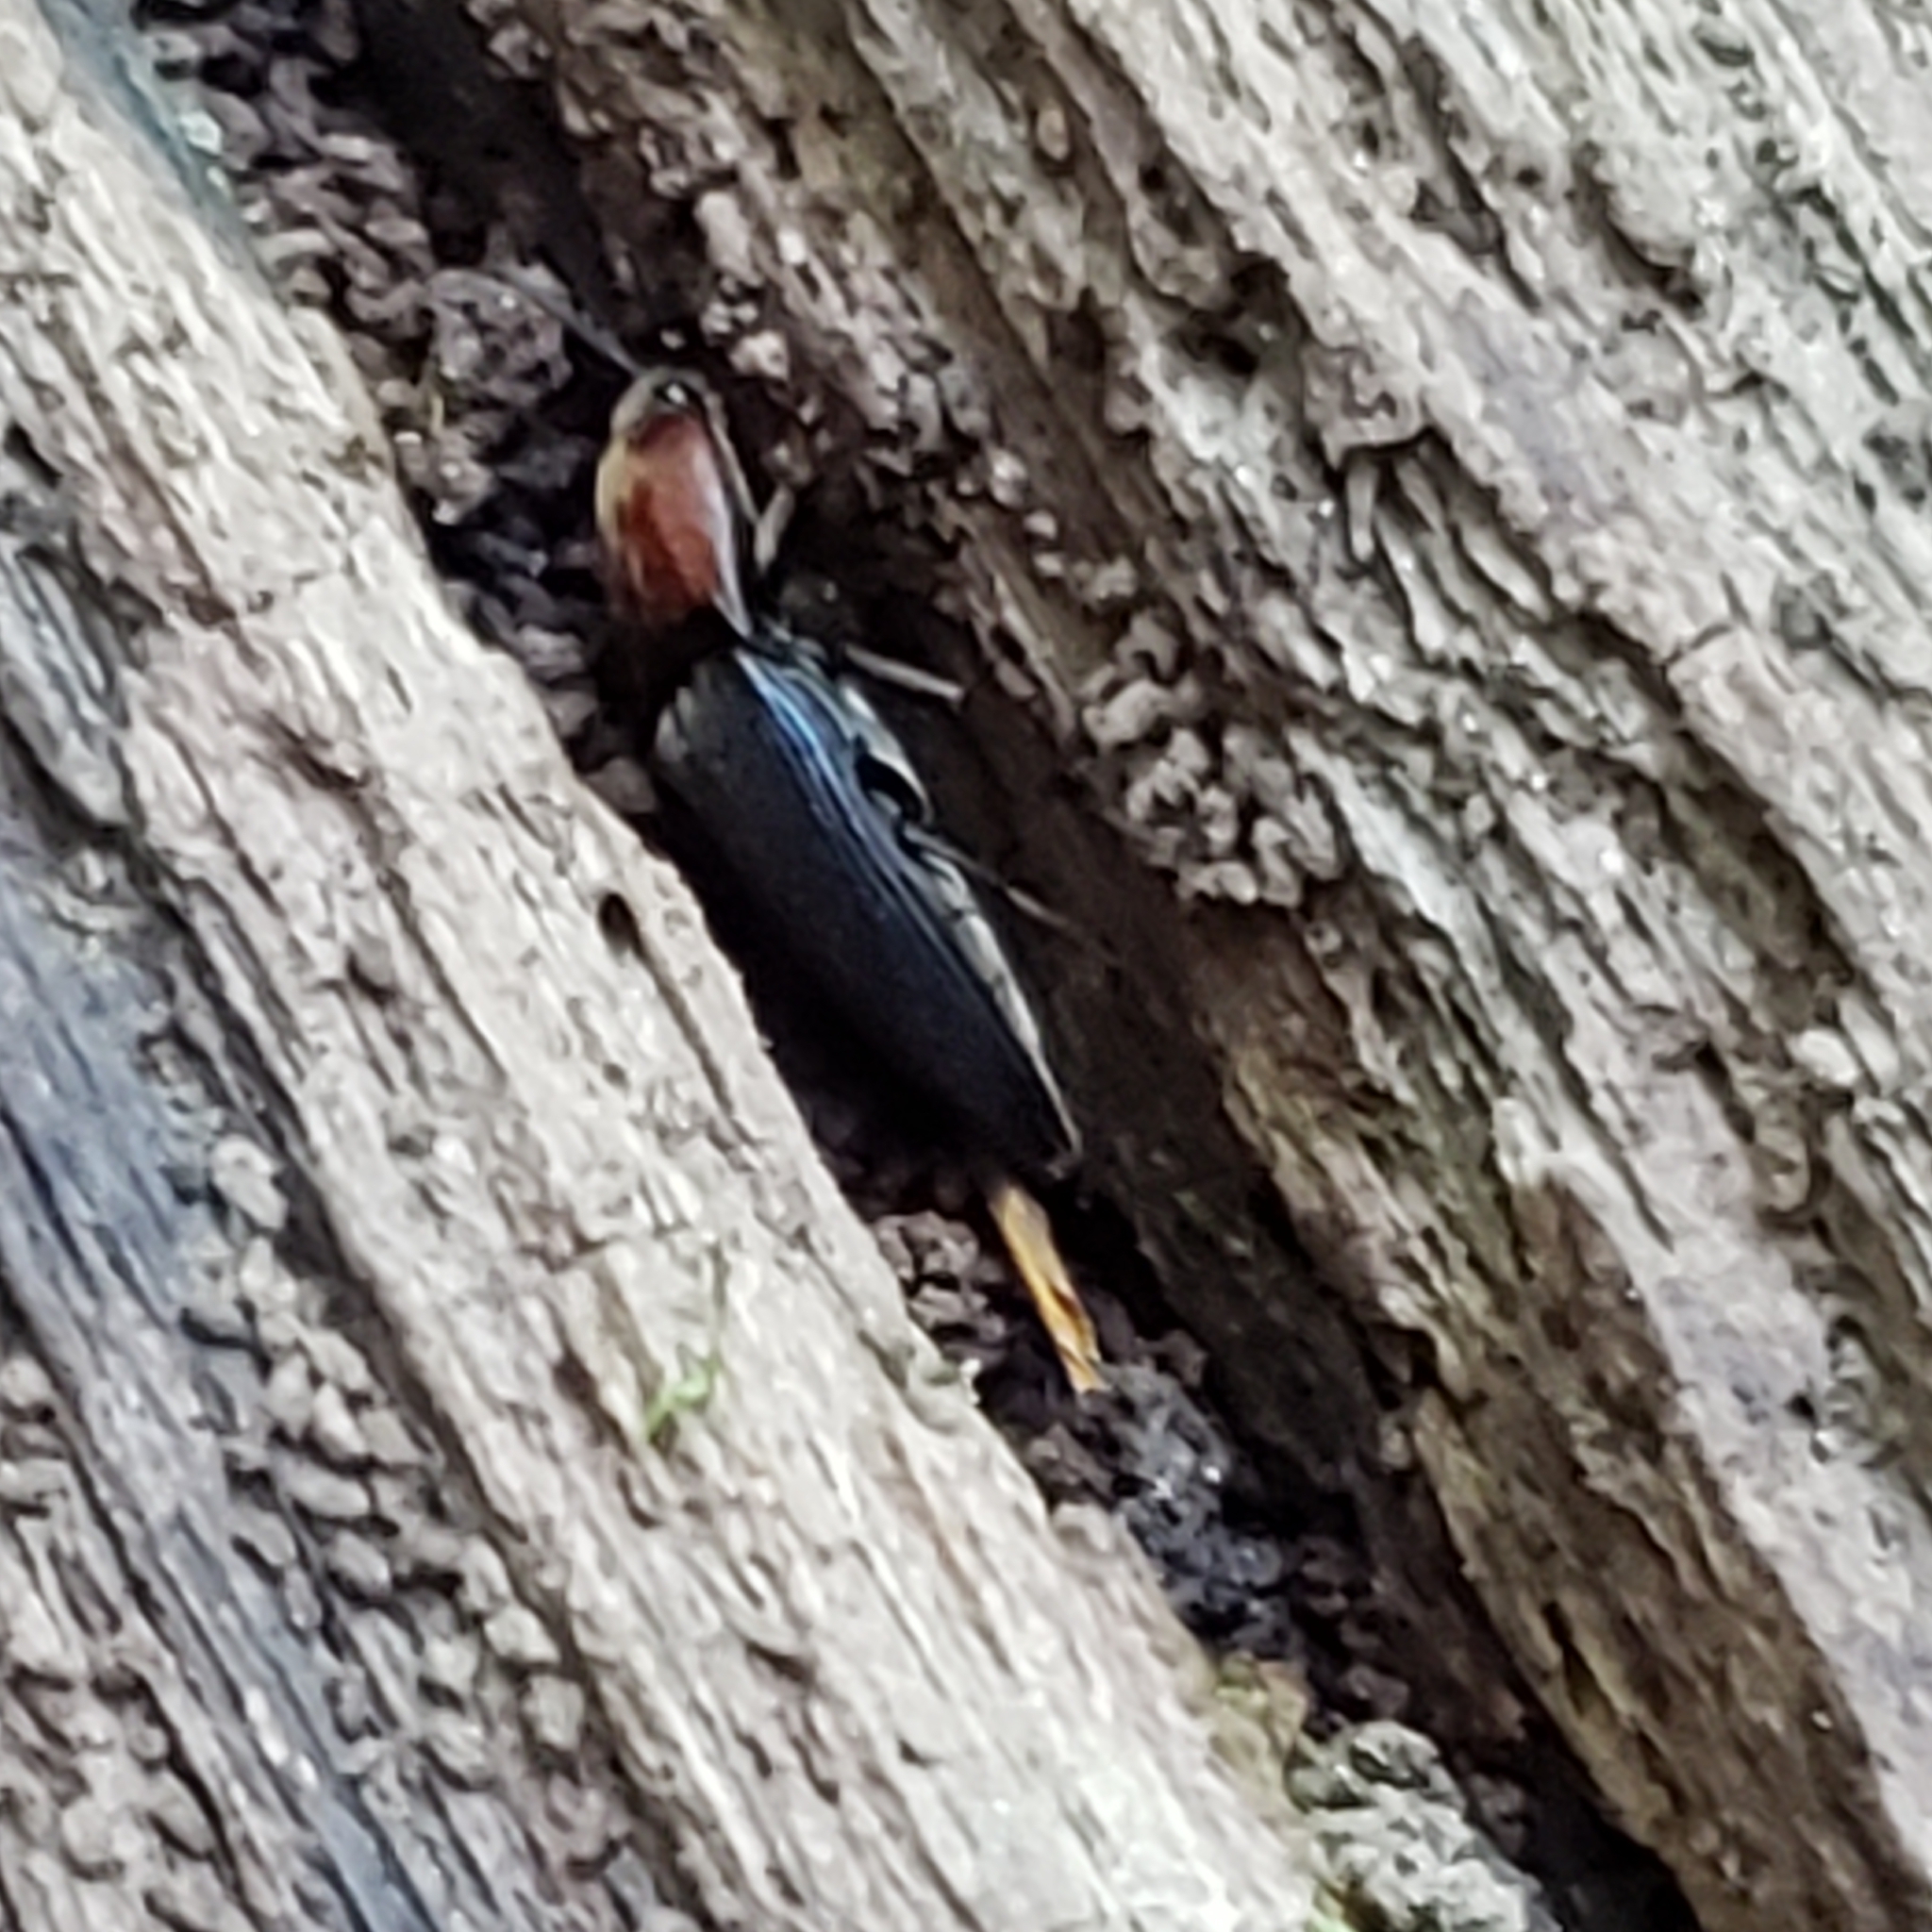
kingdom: Animalia
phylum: Arthropoda
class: Insecta
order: Coleoptera
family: Elateridae
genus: Ampedus
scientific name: Ampedus rubricollis
